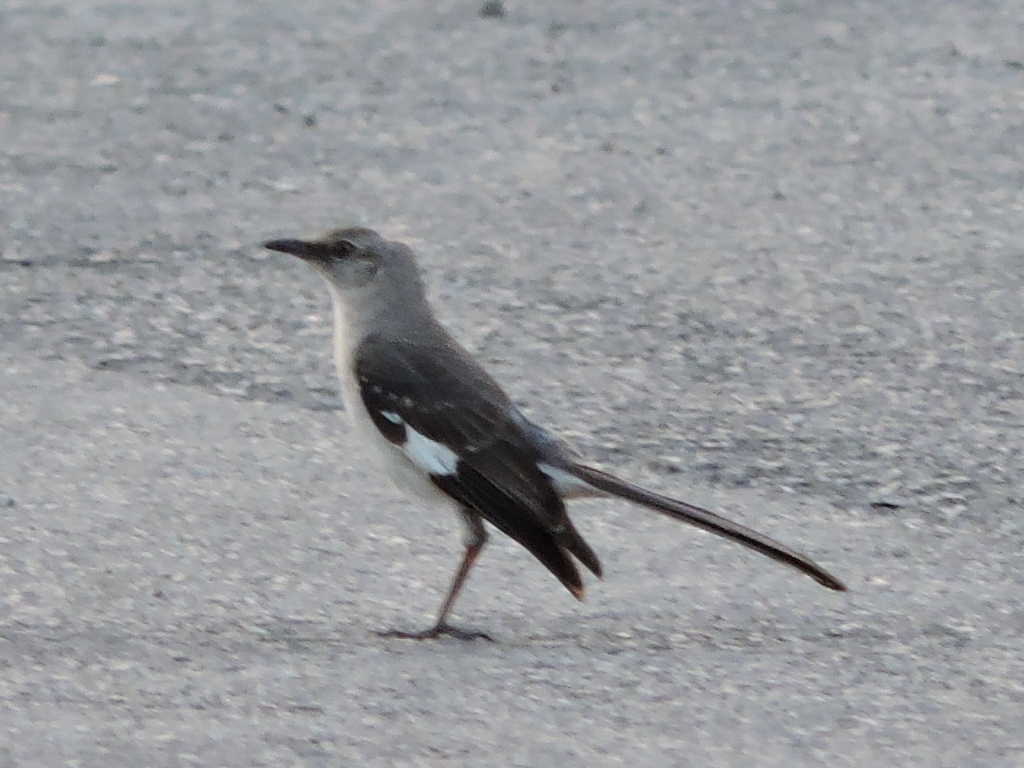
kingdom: Animalia
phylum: Chordata
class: Aves
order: Passeriformes
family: Mimidae
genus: Mimus
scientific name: Mimus polyglottos
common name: Northern mockingbird
